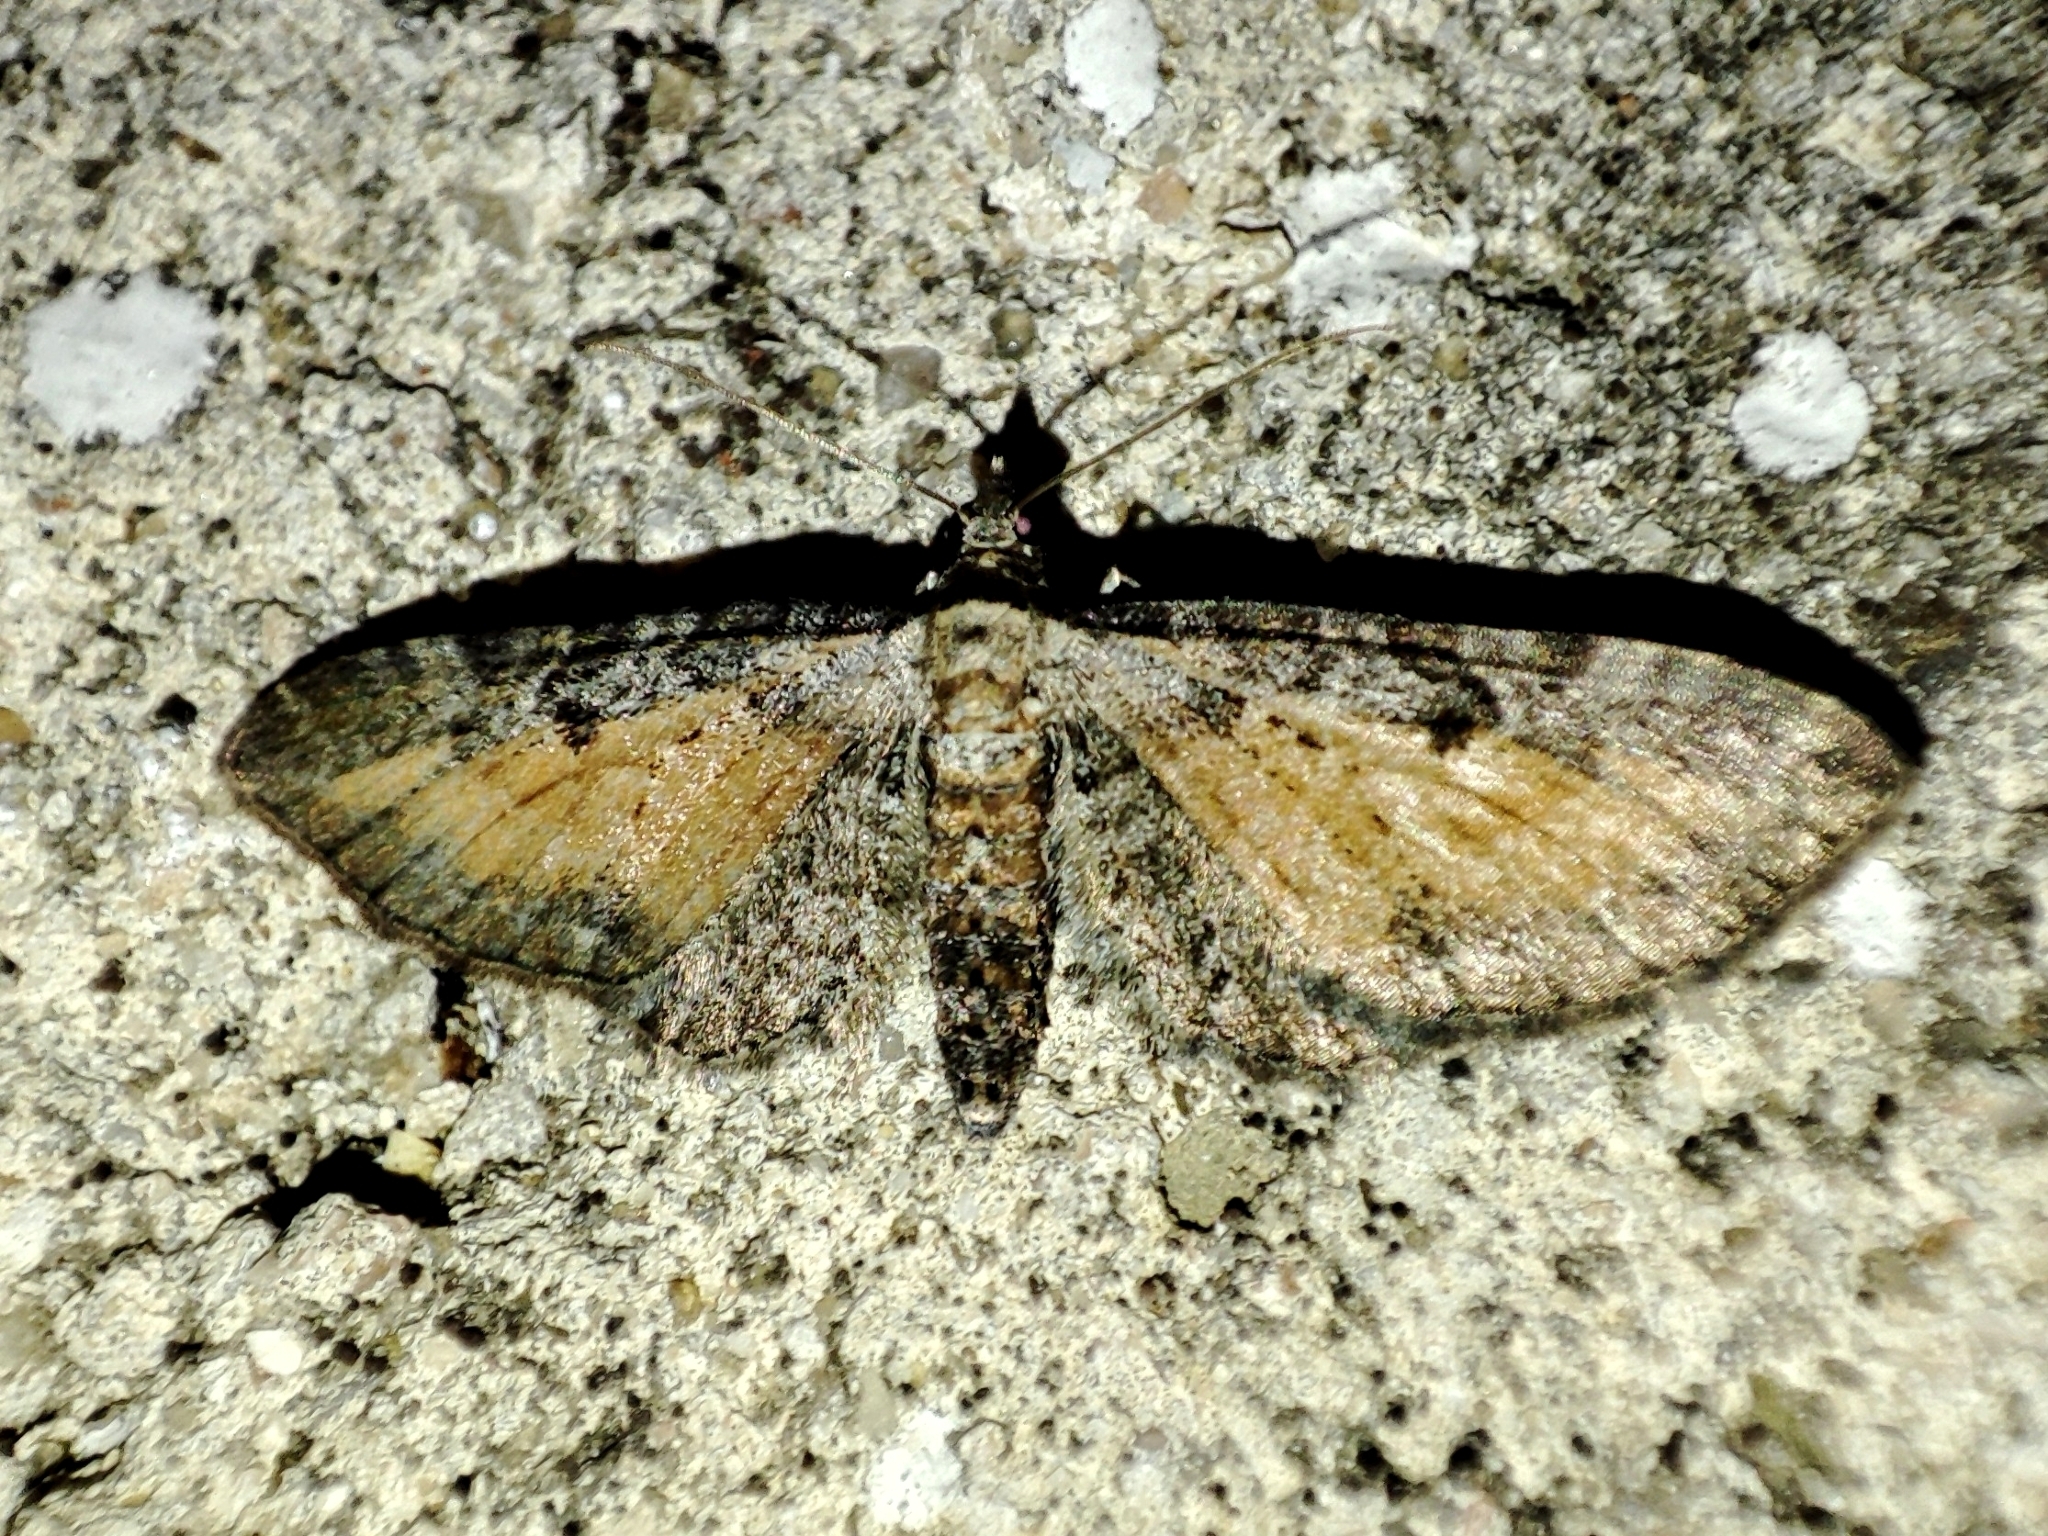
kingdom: Animalia
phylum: Arthropoda
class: Insecta
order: Lepidoptera
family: Geometridae
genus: Eupithecia
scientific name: Eupithecia icterata
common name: Tawny speckled pug
